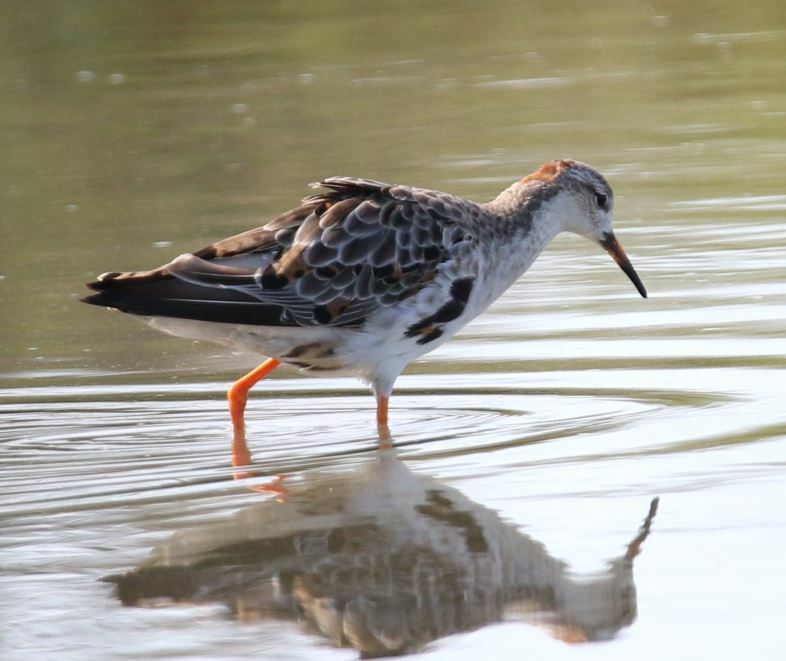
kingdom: Animalia
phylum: Chordata
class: Aves
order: Charadriiformes
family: Scolopacidae
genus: Calidris
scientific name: Calidris pugnax
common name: Ruff
